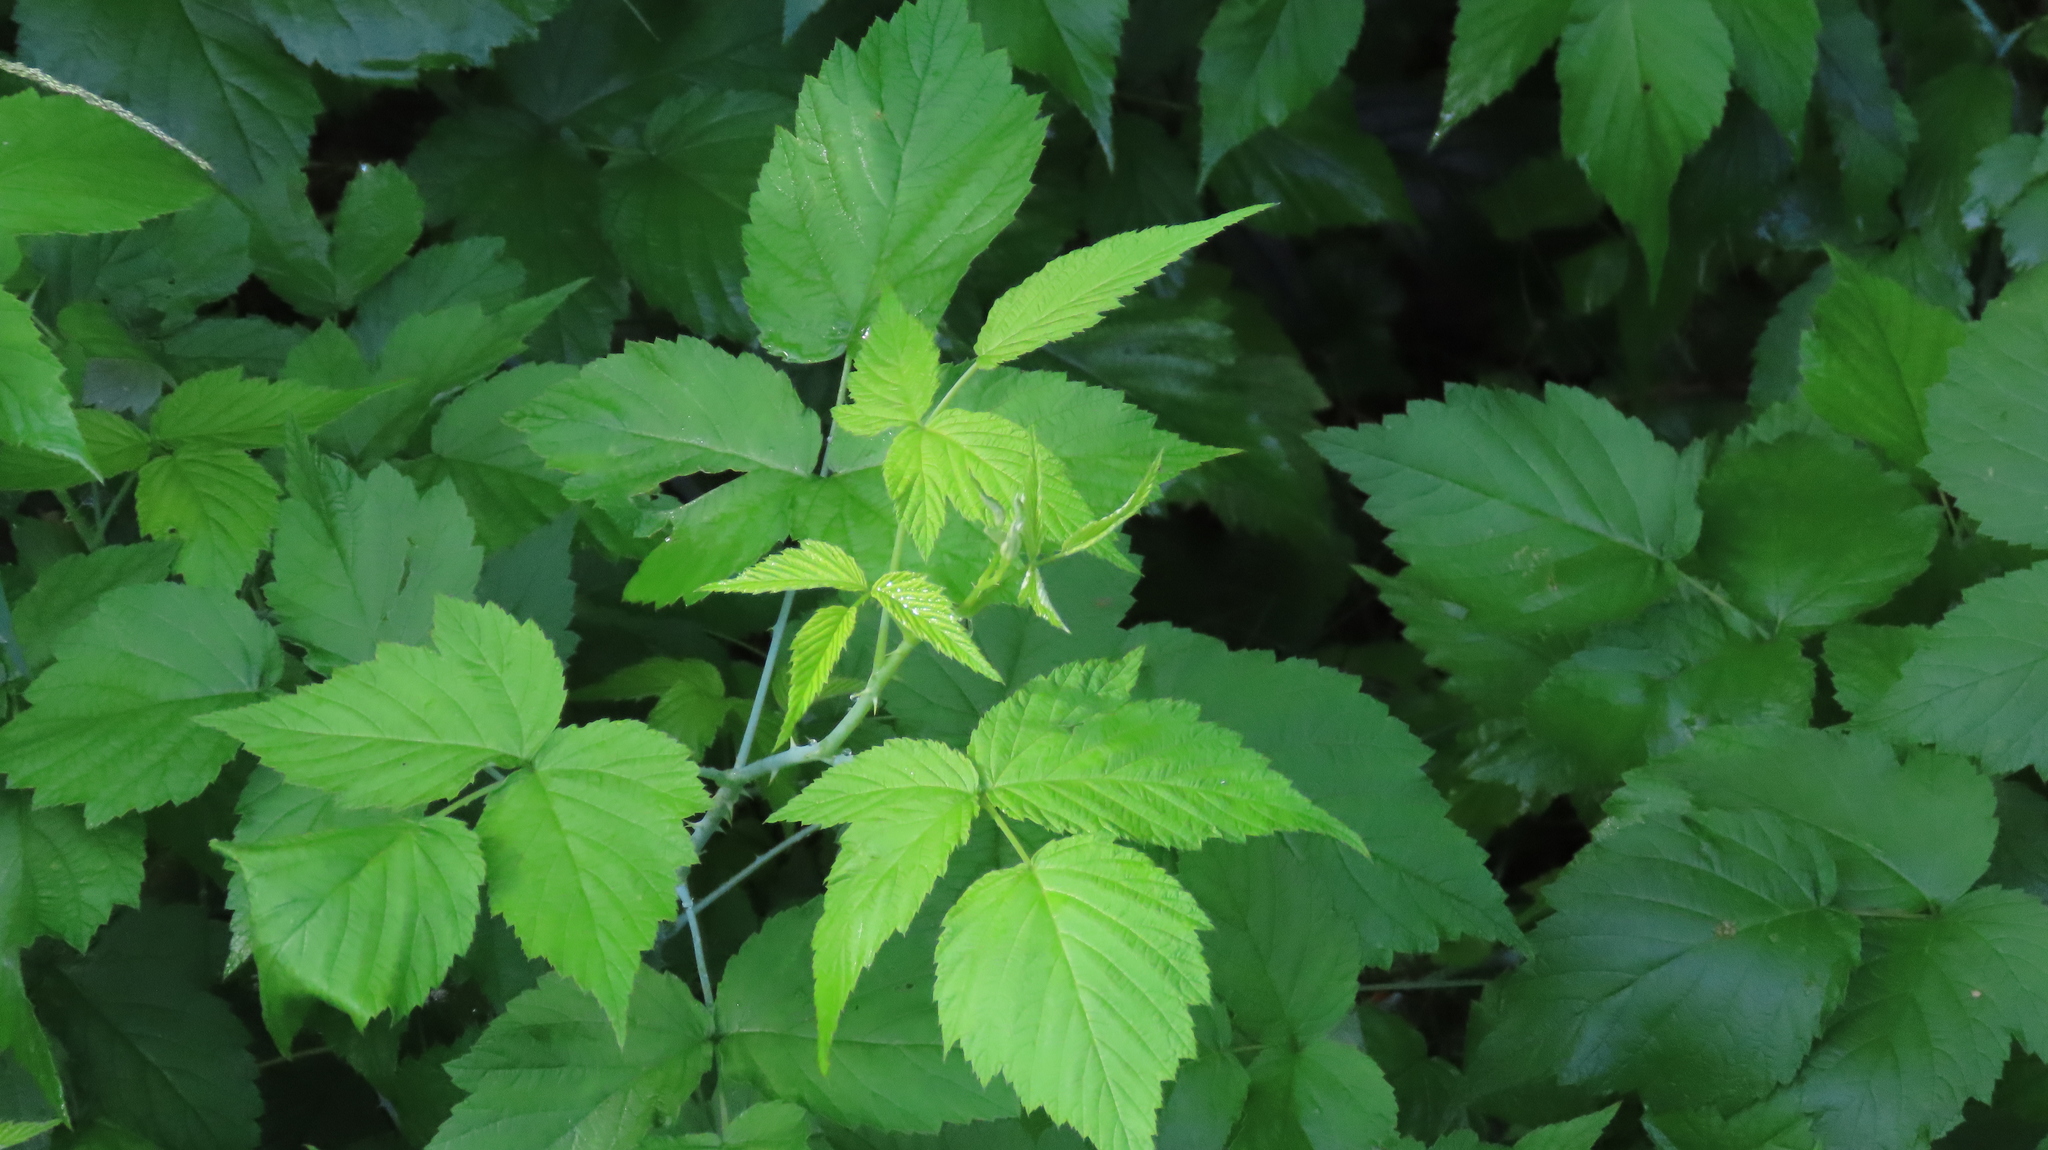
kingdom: Plantae
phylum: Tracheophyta
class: Magnoliopsida
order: Rosales
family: Rosaceae
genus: Rubus
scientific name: Rubus occidentalis
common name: Black raspberry
